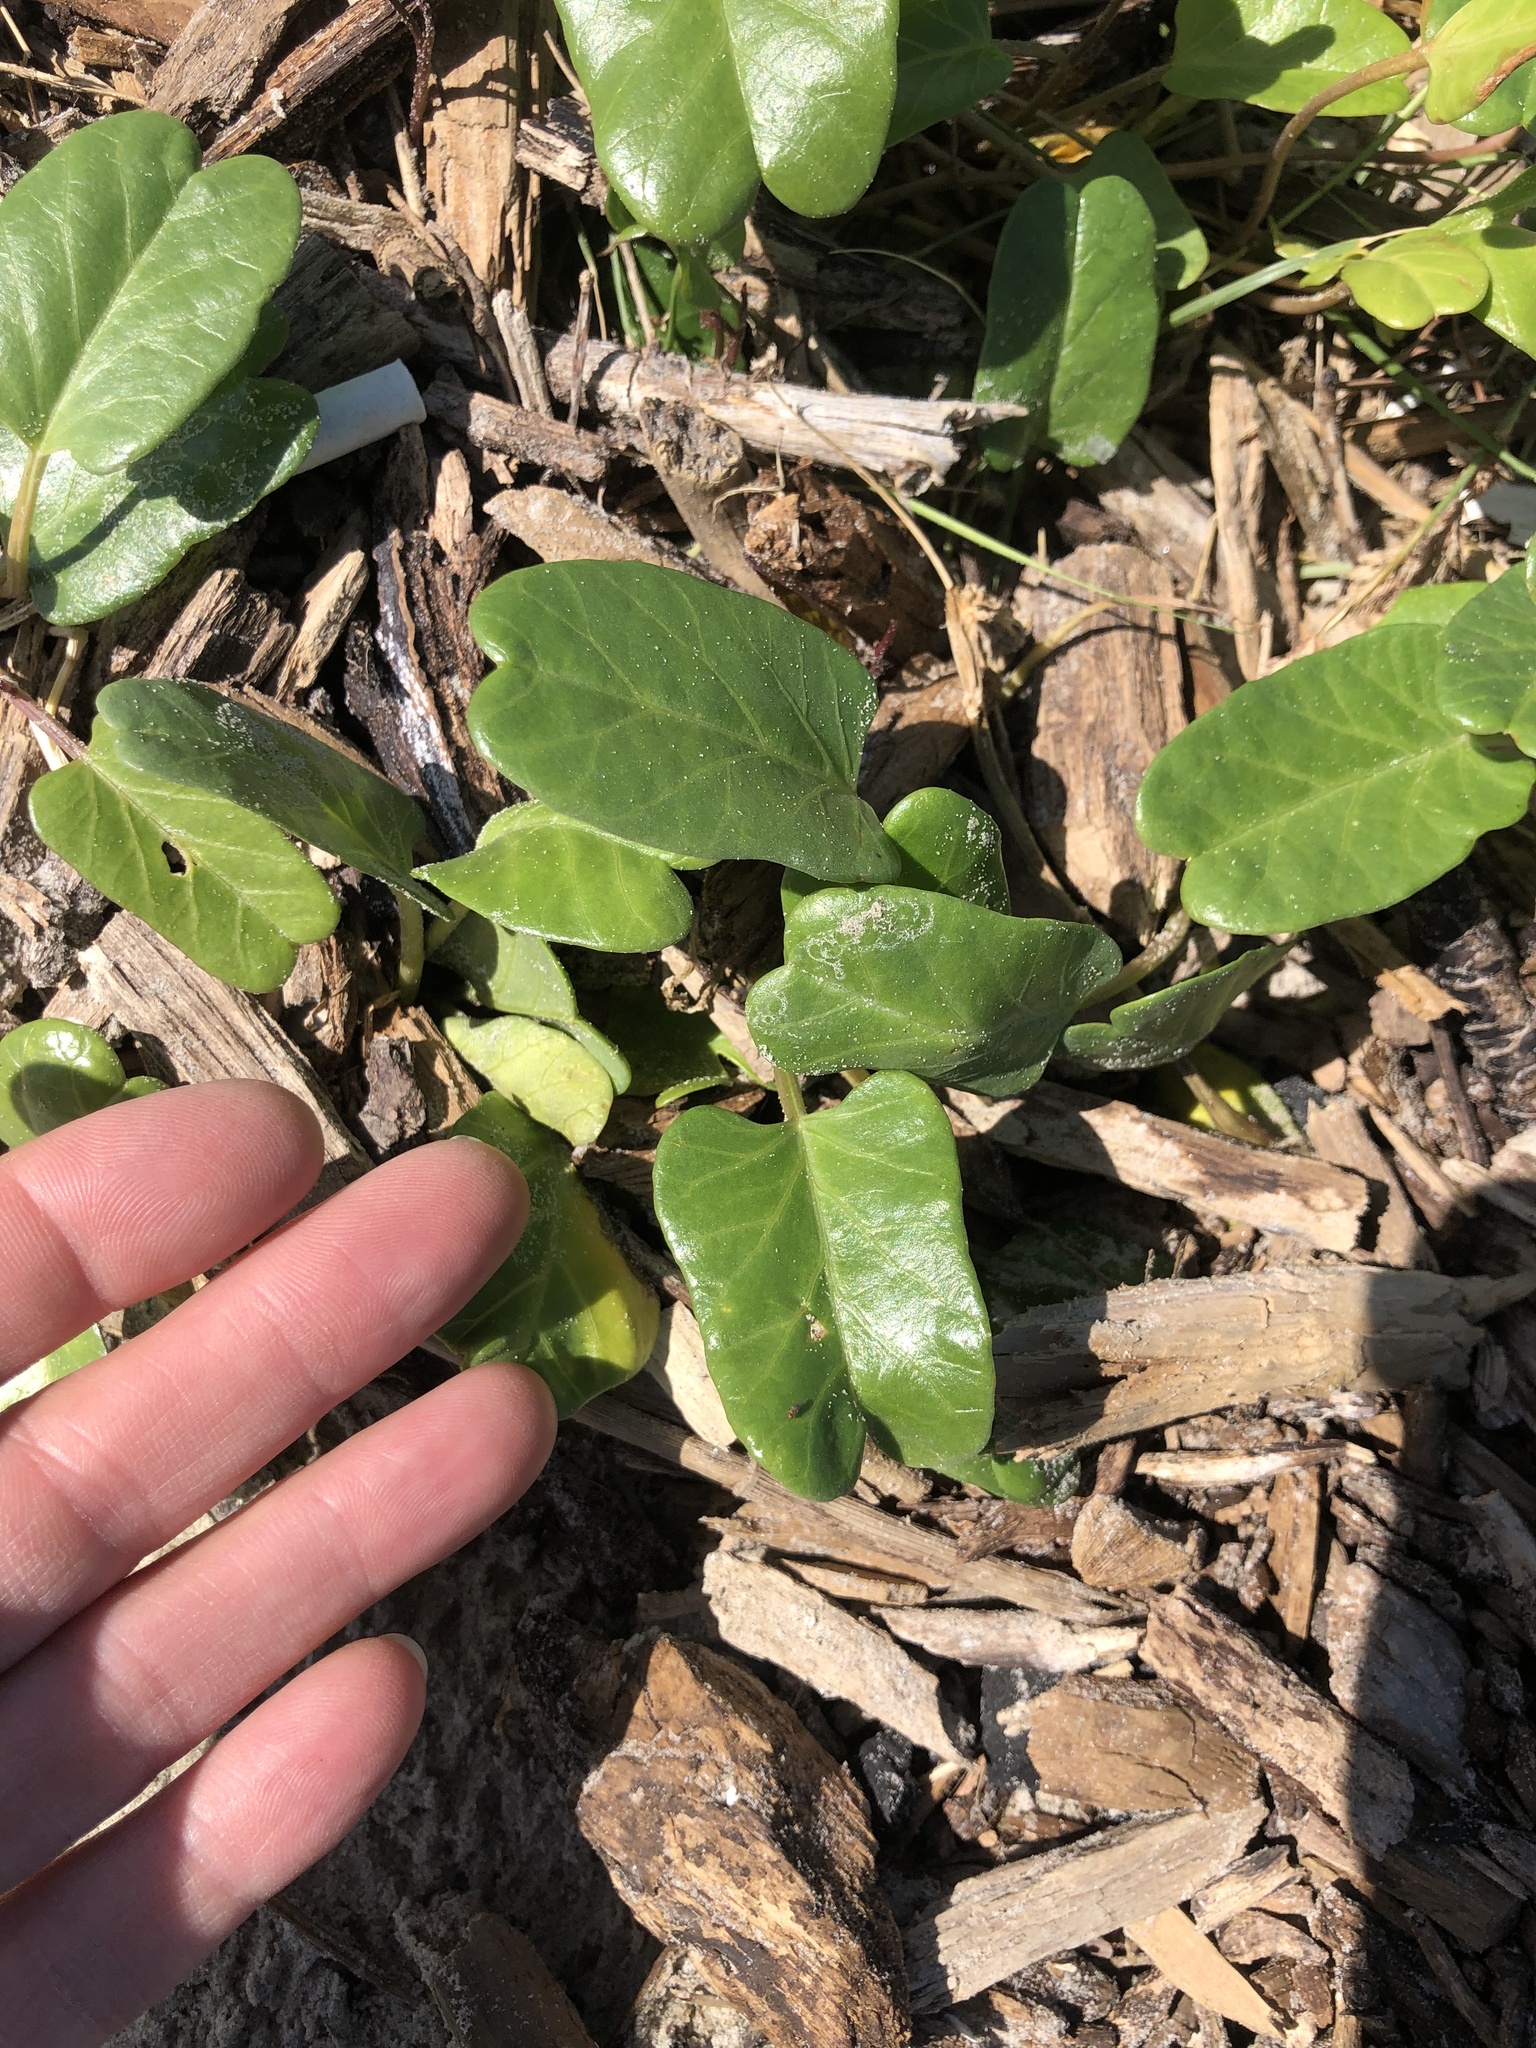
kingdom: Plantae
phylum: Tracheophyta
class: Magnoliopsida
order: Solanales
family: Convolvulaceae
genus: Ipomoea
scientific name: Ipomoea imperati
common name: Fiddle-leaf morning-glory
